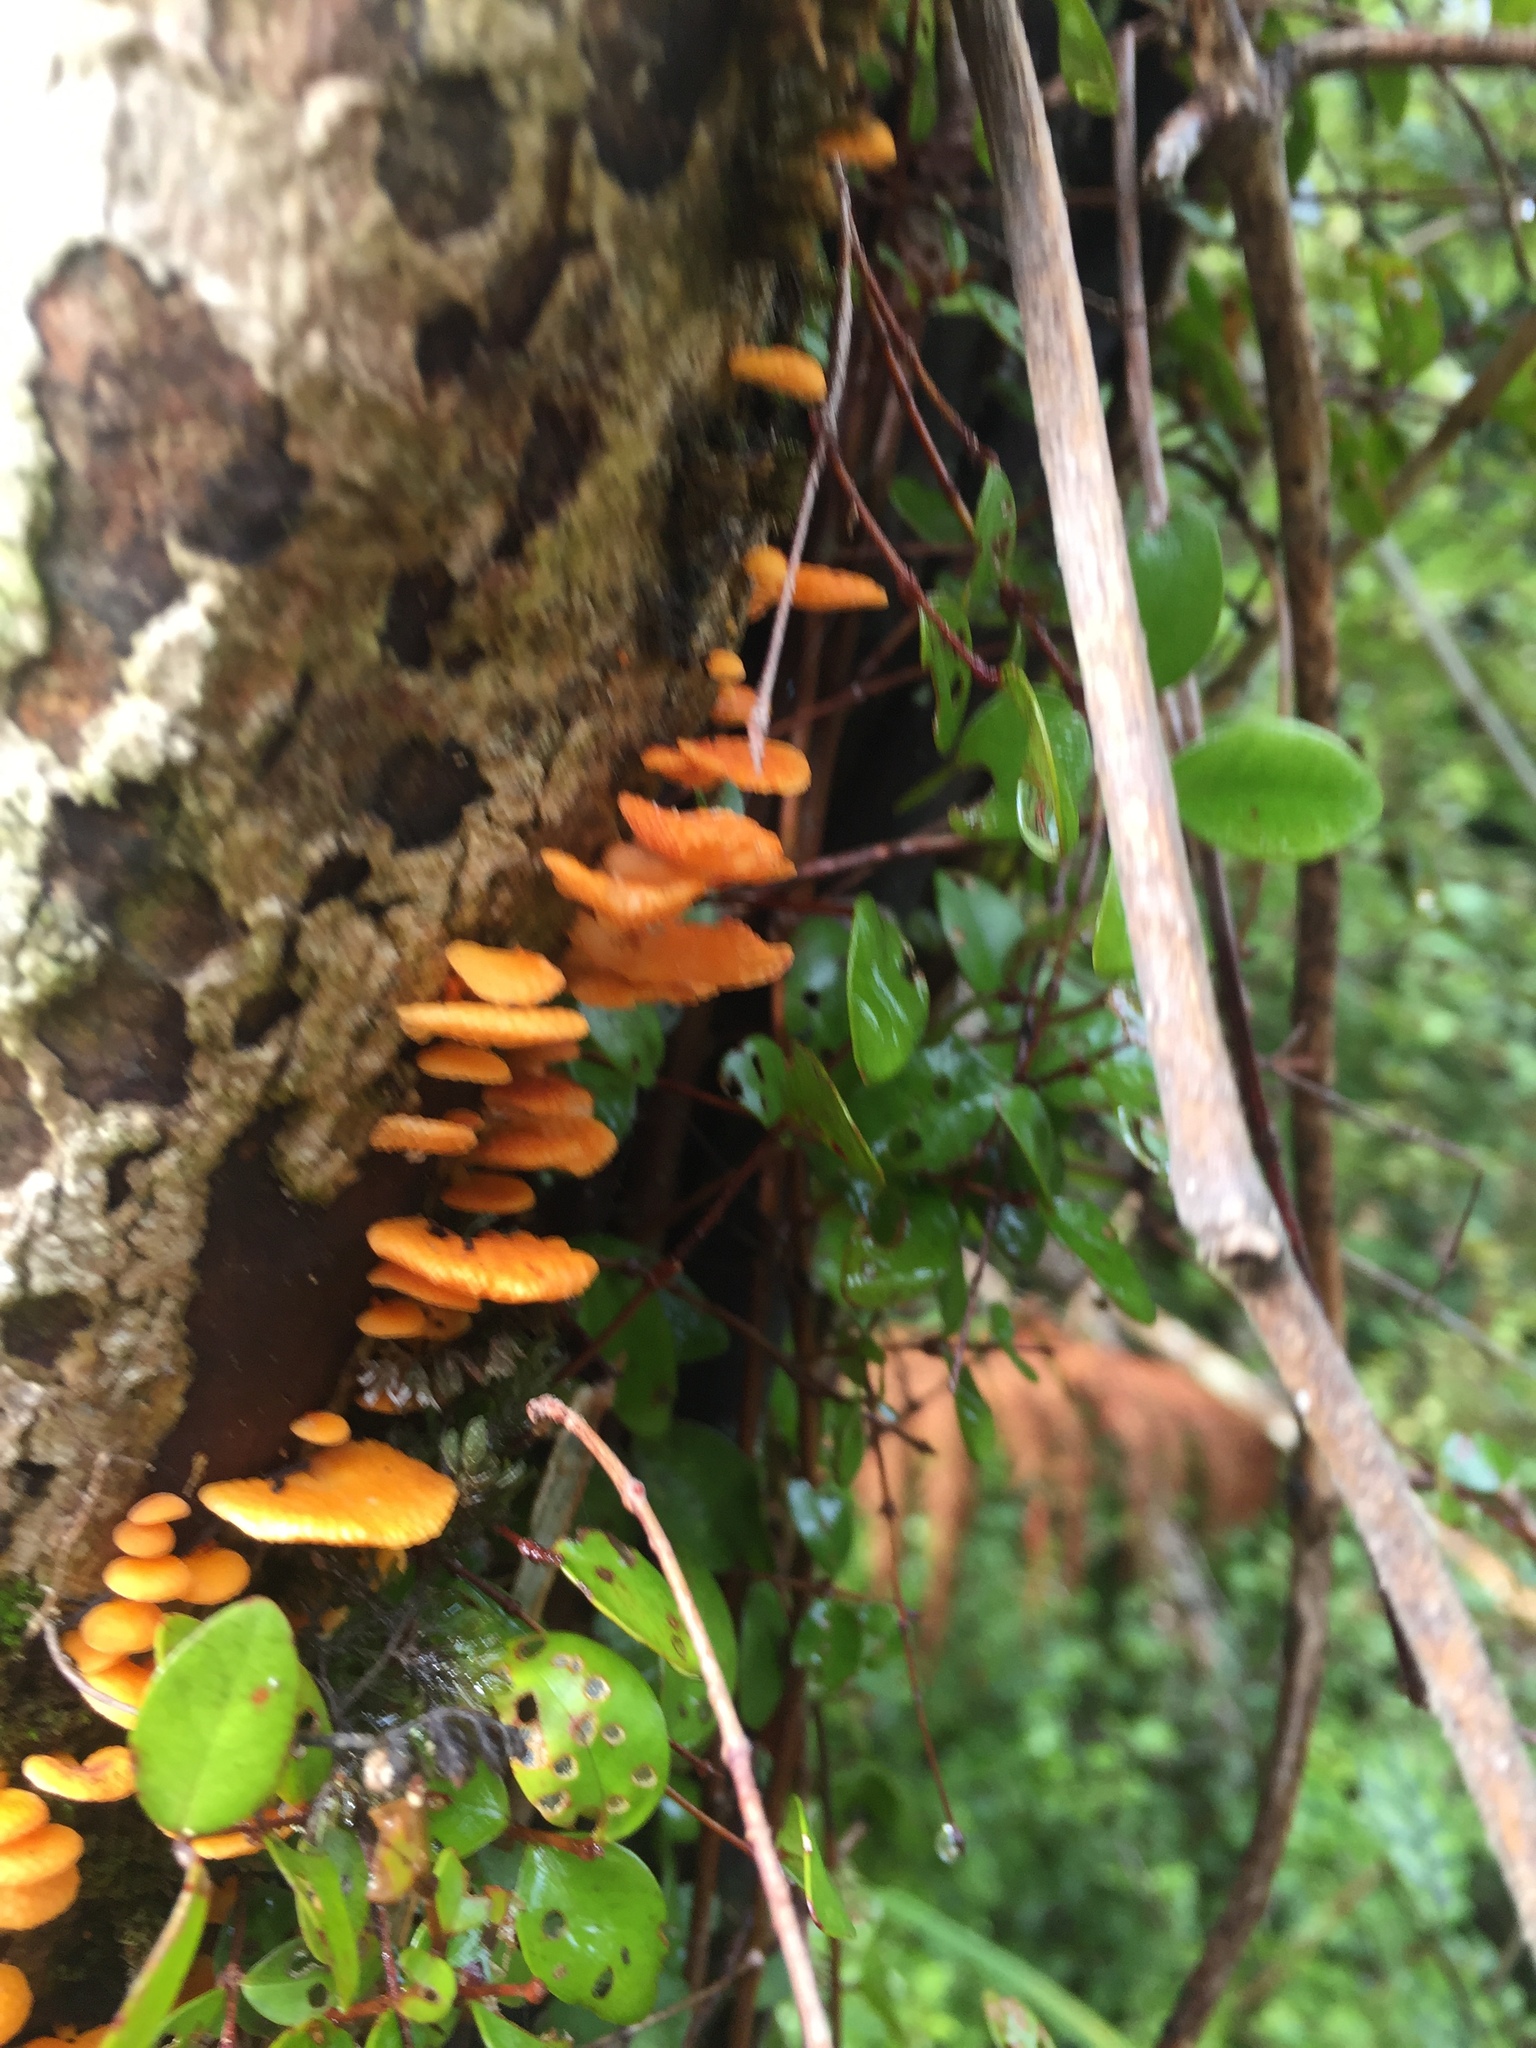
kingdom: Fungi
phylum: Basidiomycota
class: Agaricomycetes
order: Agaricales
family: Mycenaceae
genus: Favolaschia
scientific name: Favolaschia claudopus
